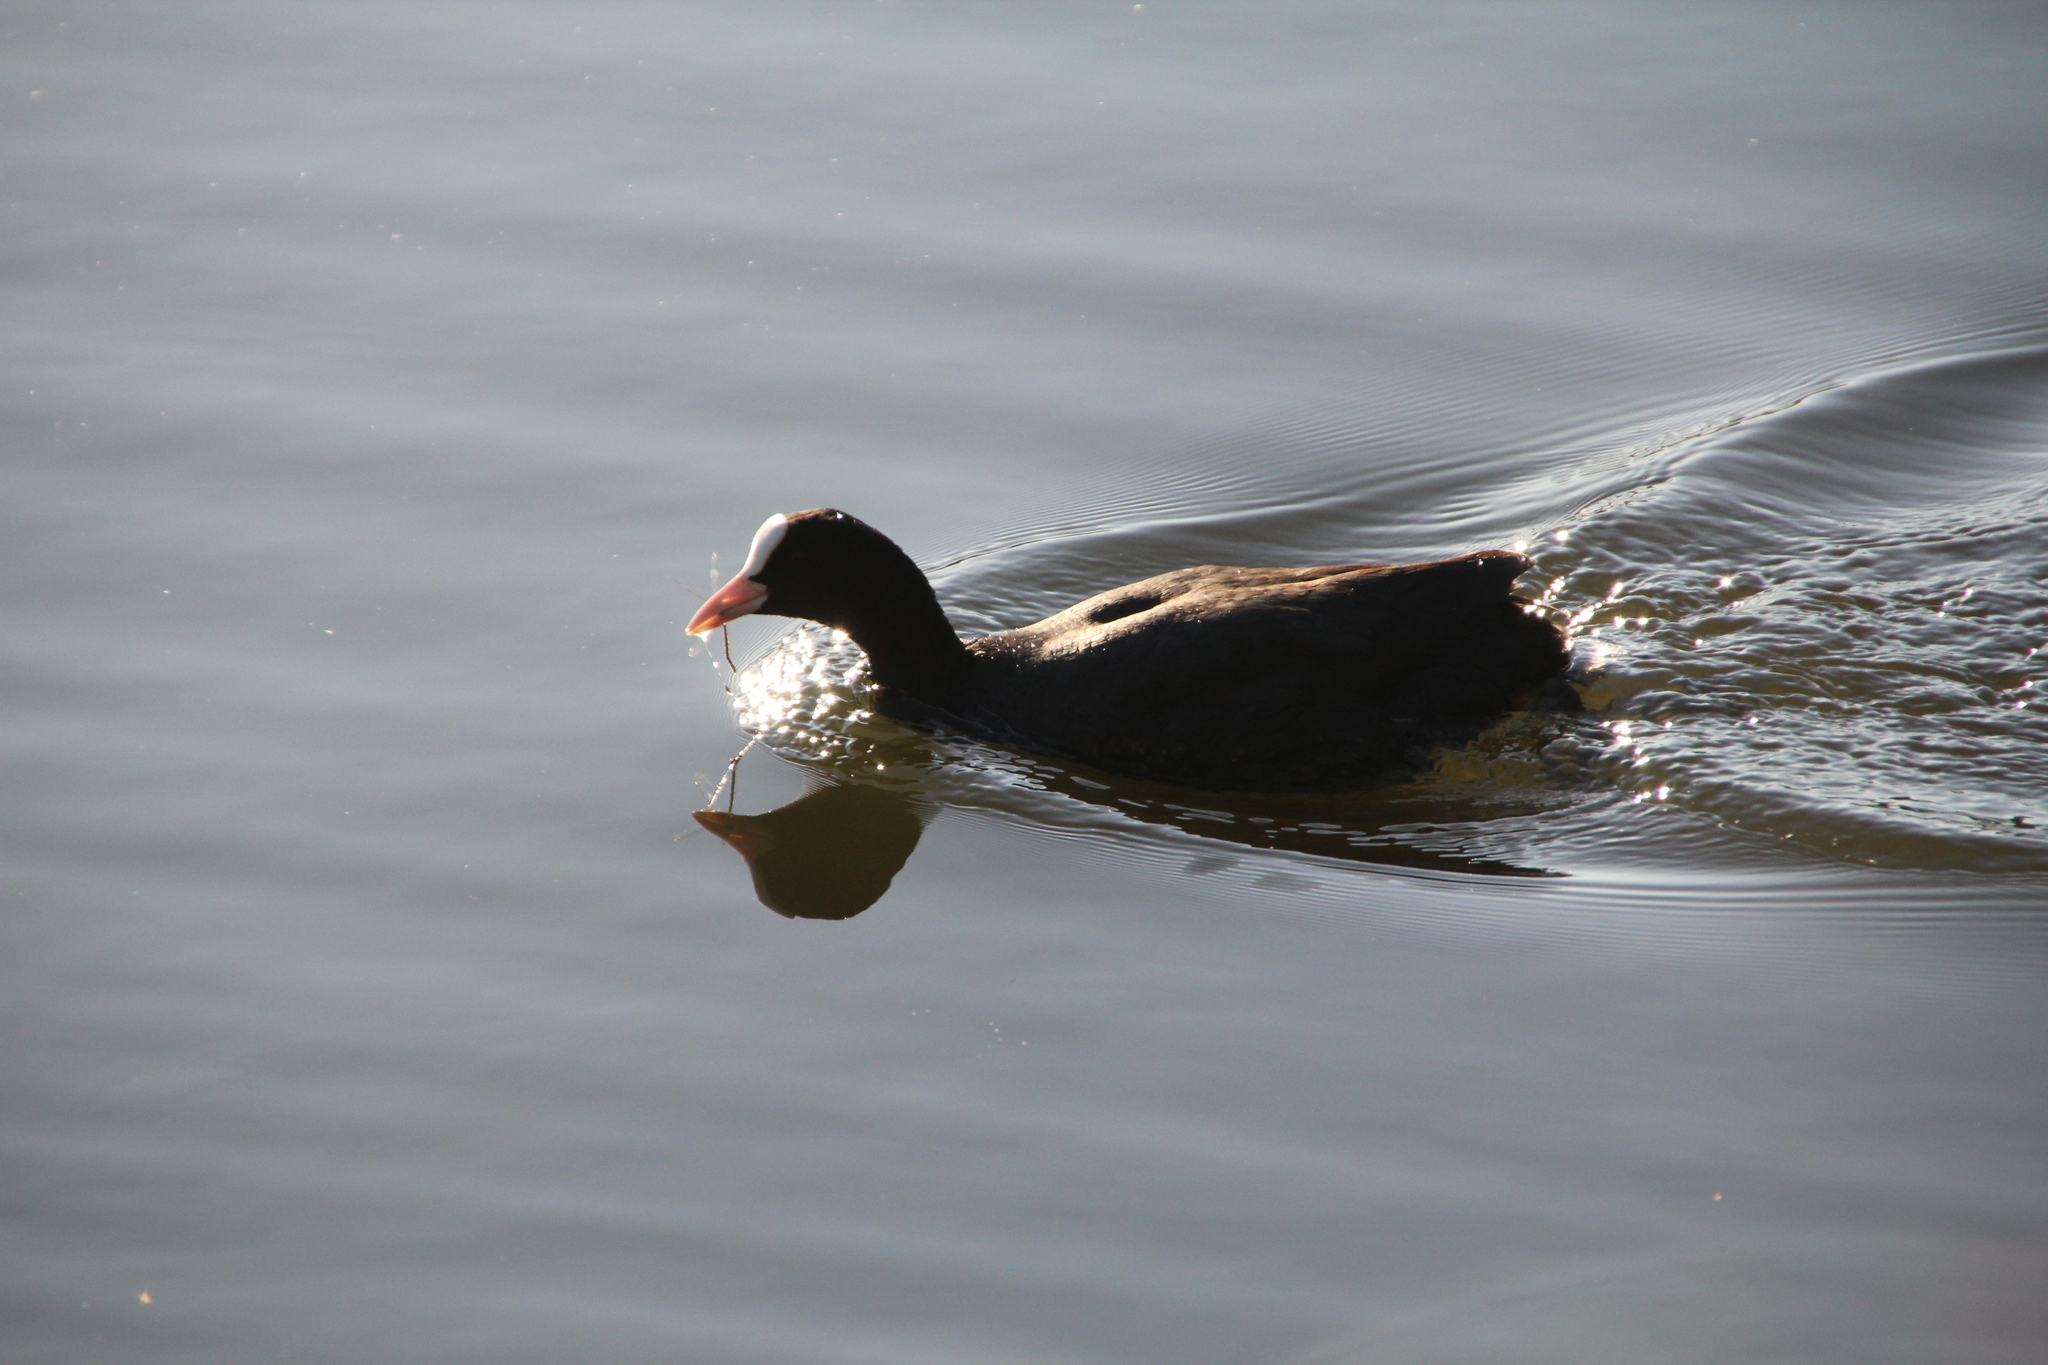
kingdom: Animalia
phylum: Chordata
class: Aves
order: Gruiformes
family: Rallidae
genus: Fulica
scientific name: Fulica atra
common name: Eurasian coot
